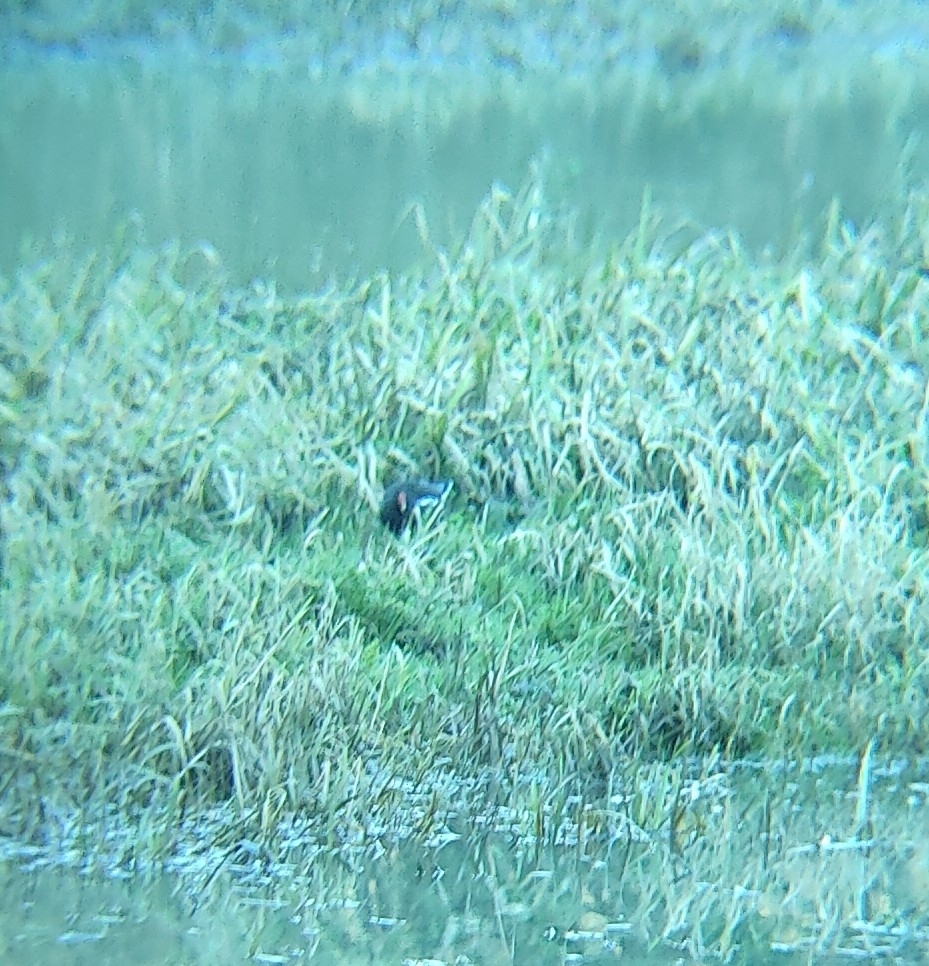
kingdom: Animalia
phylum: Chordata
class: Aves
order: Gruiformes
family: Rallidae
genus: Gallinula
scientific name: Gallinula chloropus
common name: Common moorhen
